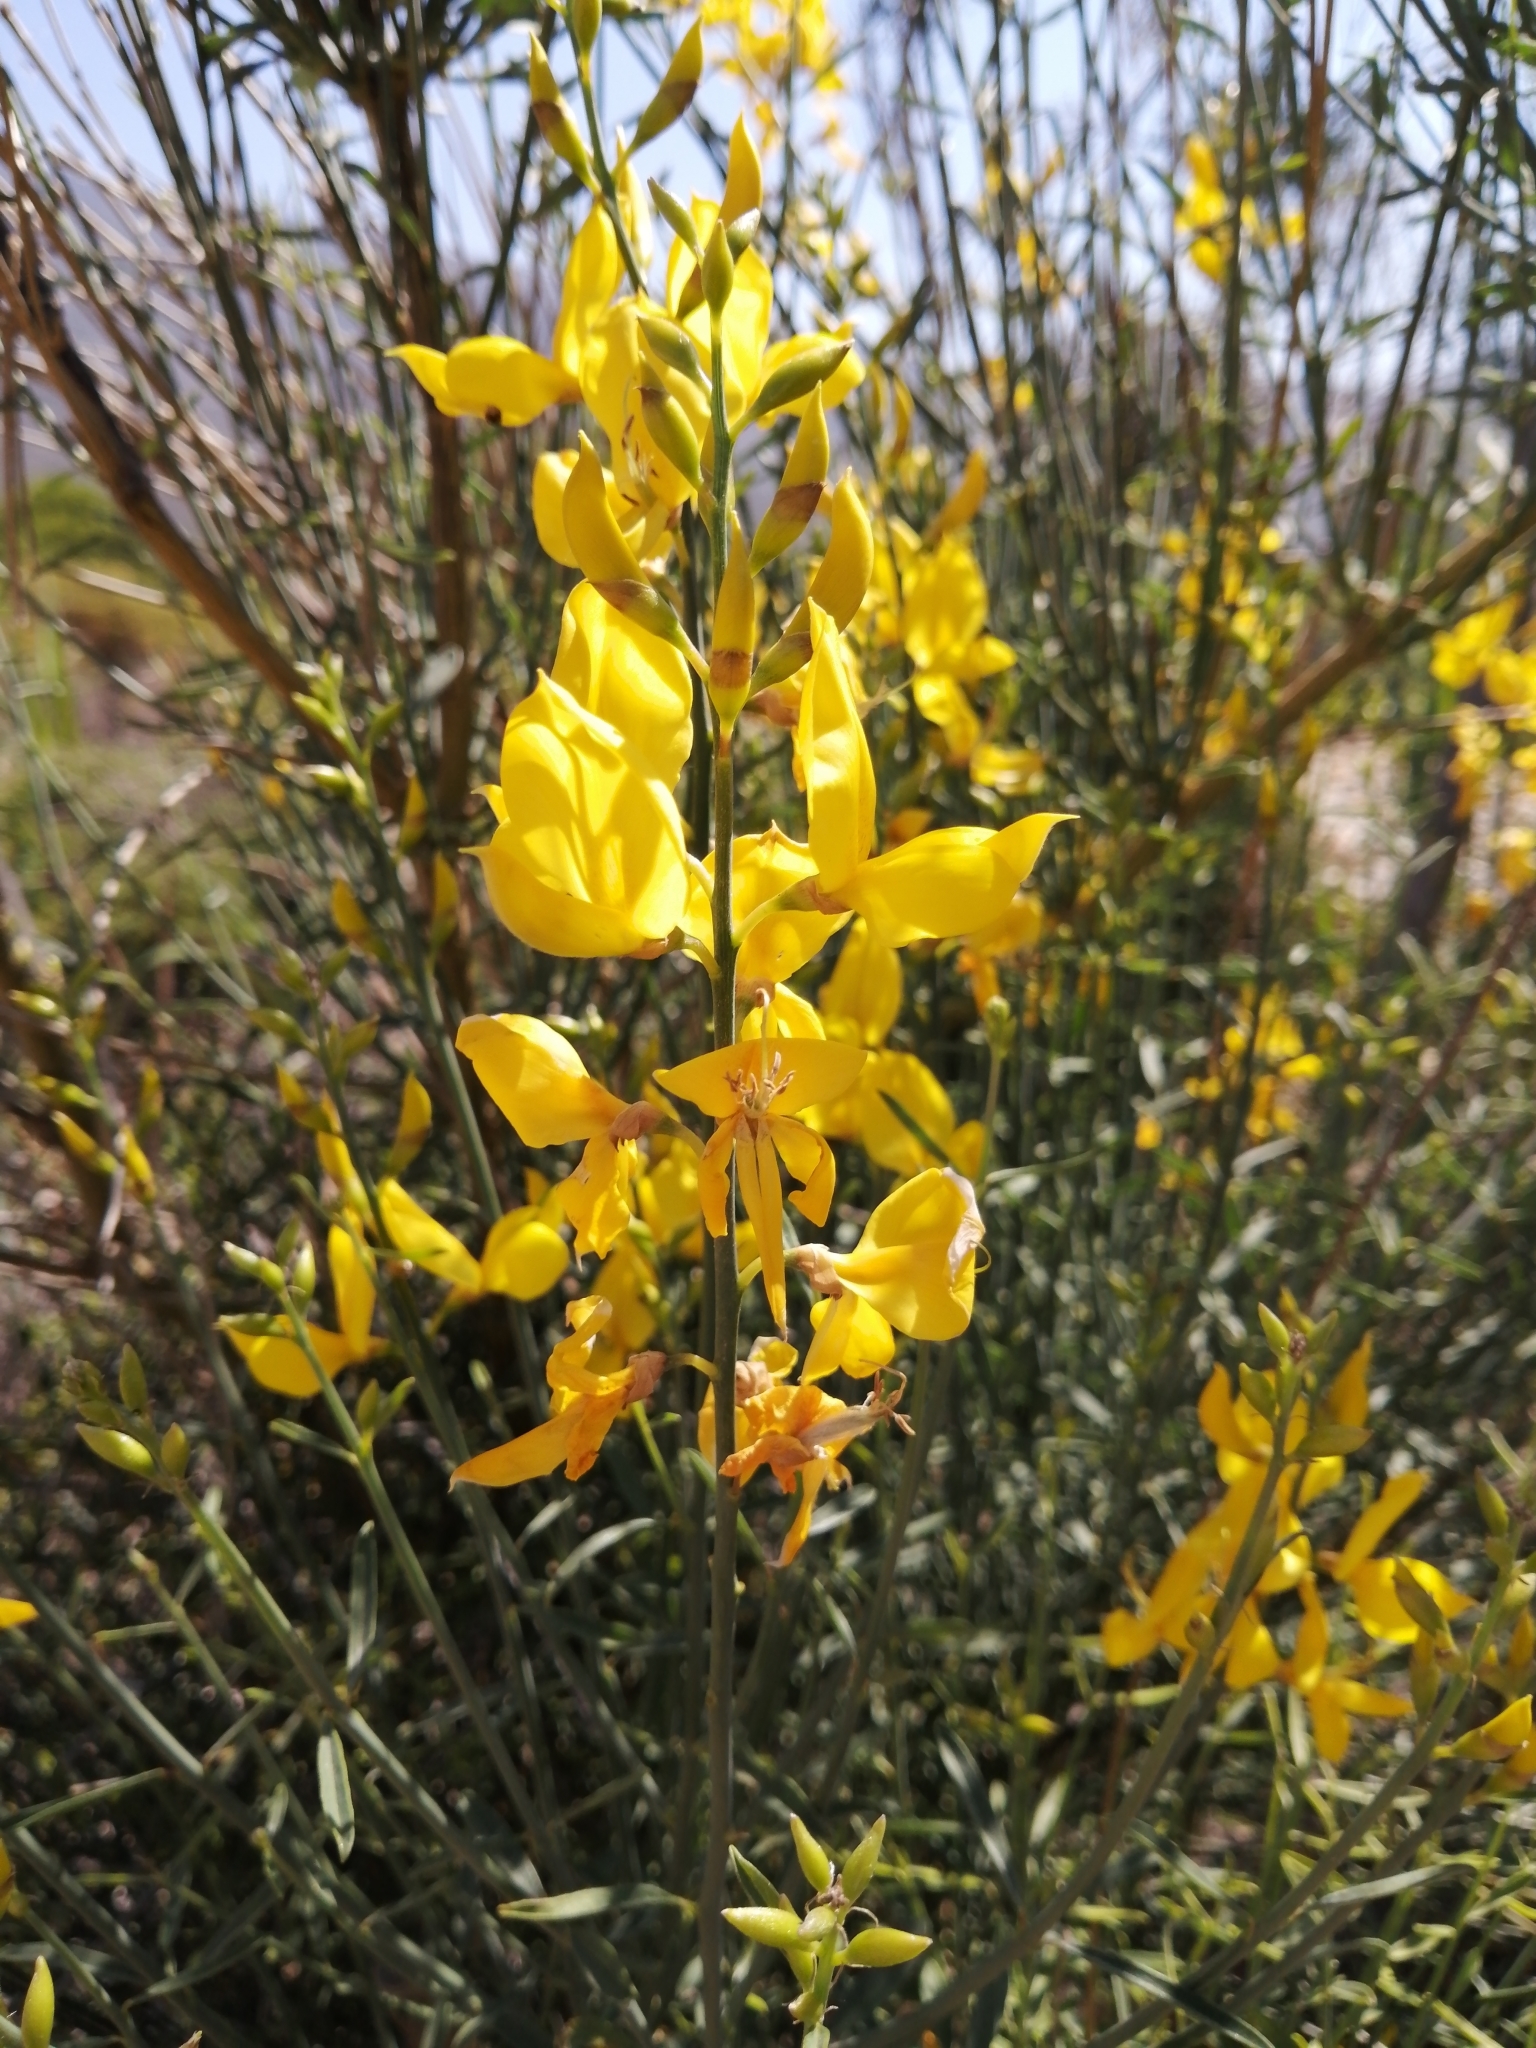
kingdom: Plantae
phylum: Tracheophyta
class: Magnoliopsida
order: Fabales
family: Fabaceae
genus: Spartium
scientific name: Spartium junceum
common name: Spanish broom
